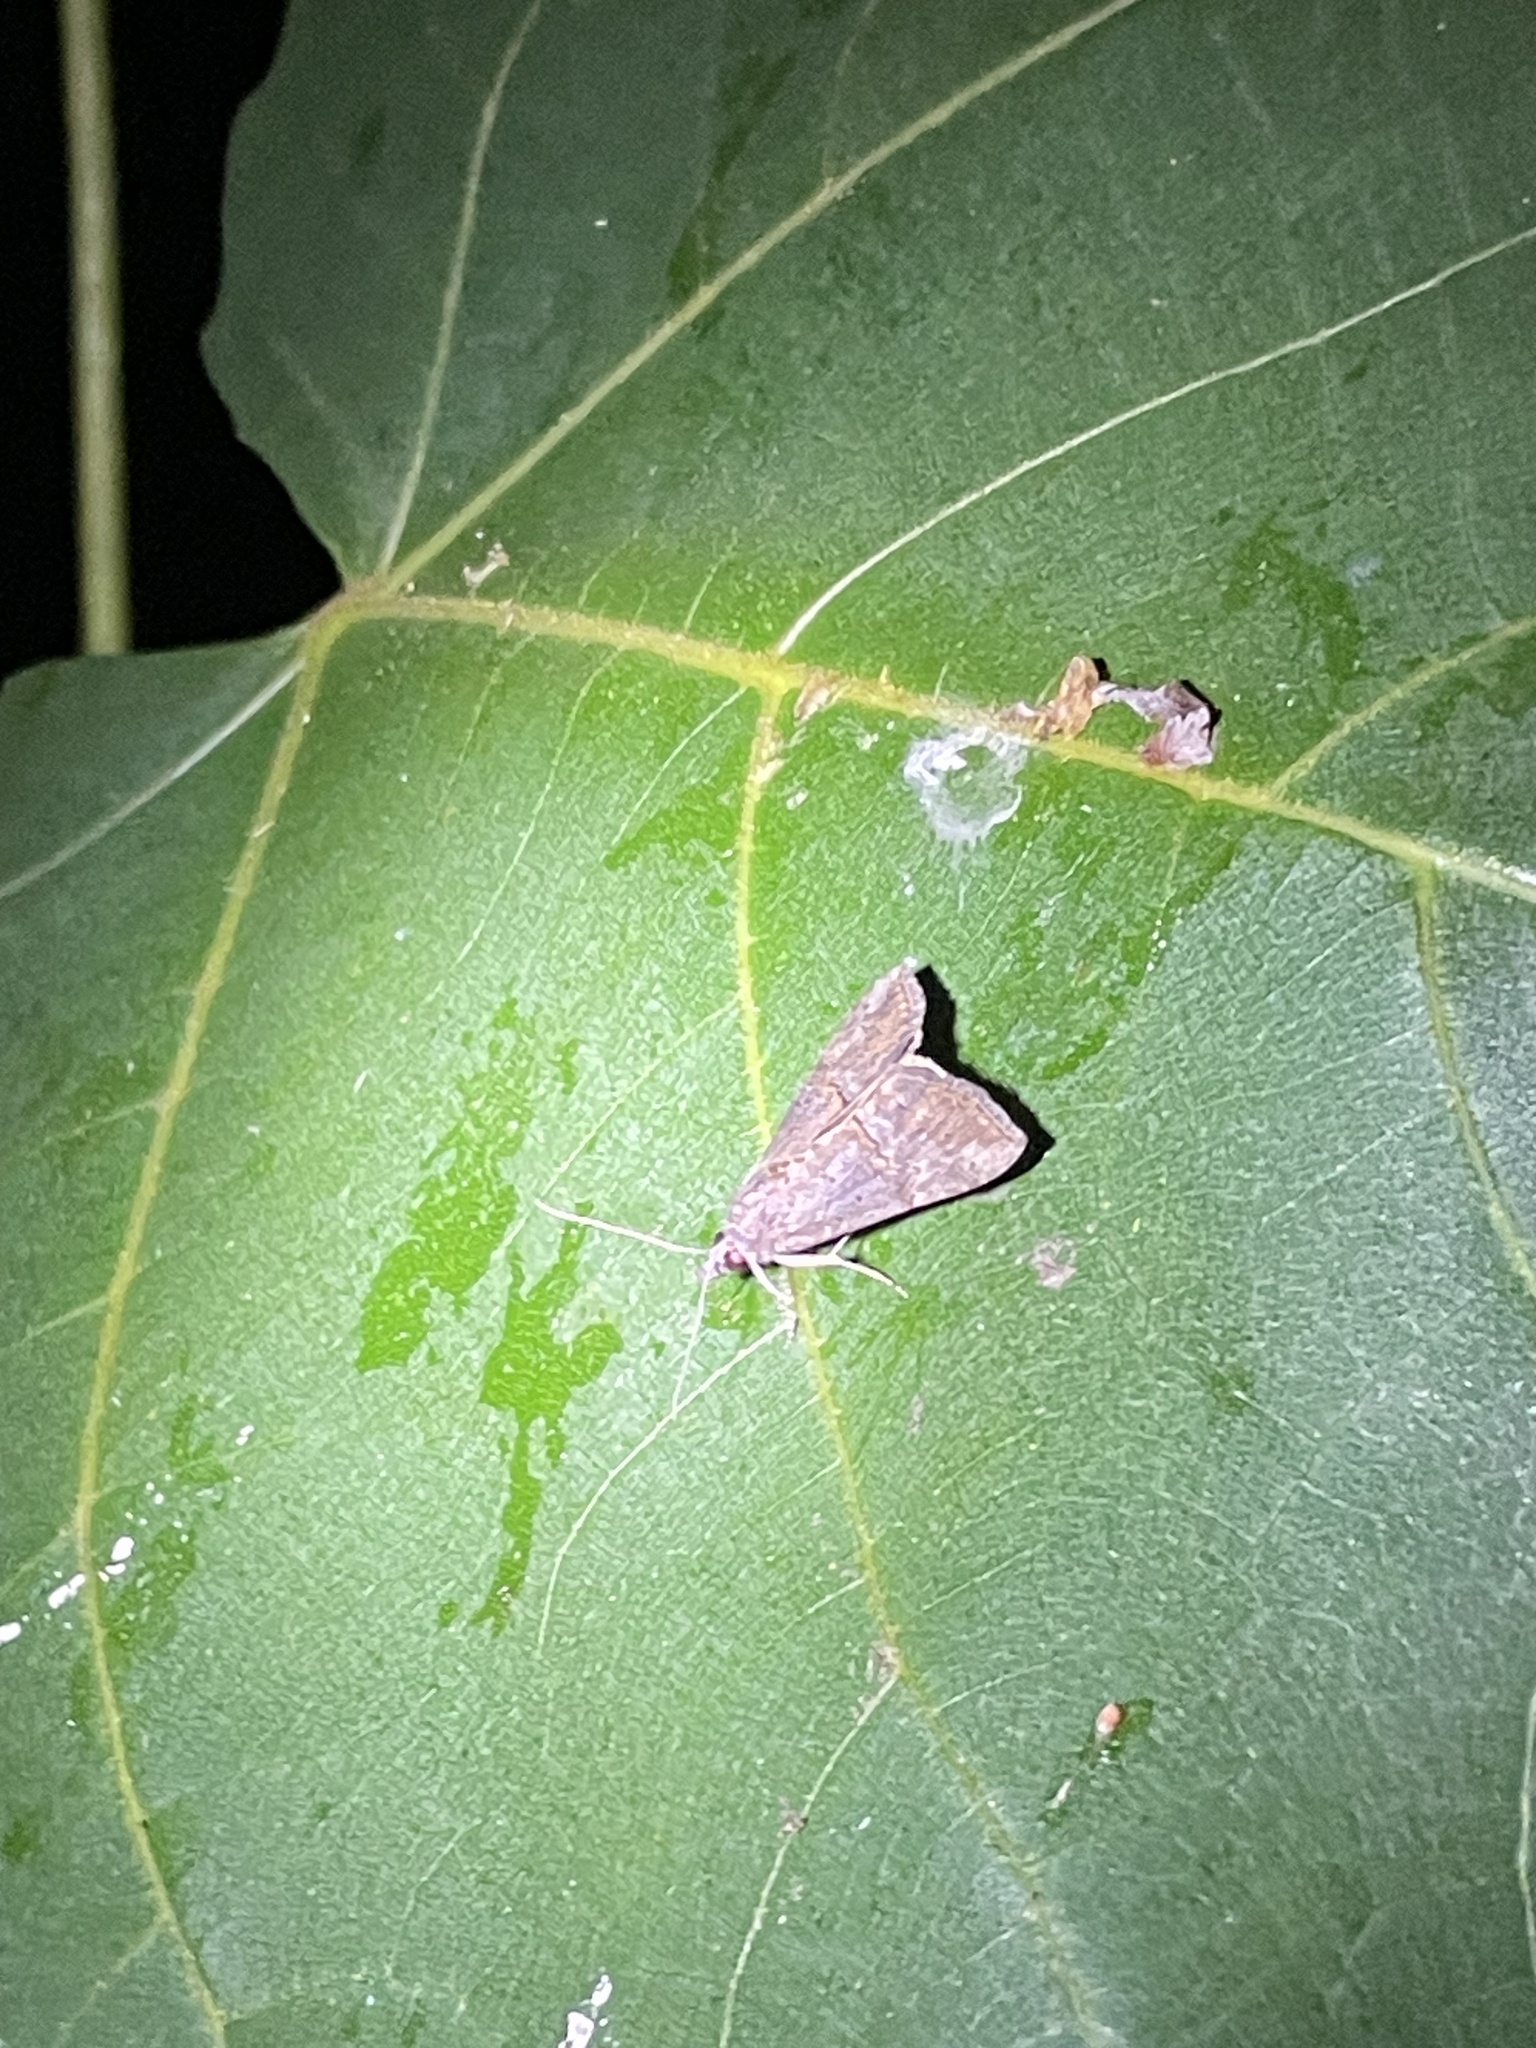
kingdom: Animalia
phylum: Arthropoda
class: Insecta
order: Lepidoptera
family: Erebidae
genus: Hypena
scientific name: Hypena scabra
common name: Green cloverworm
